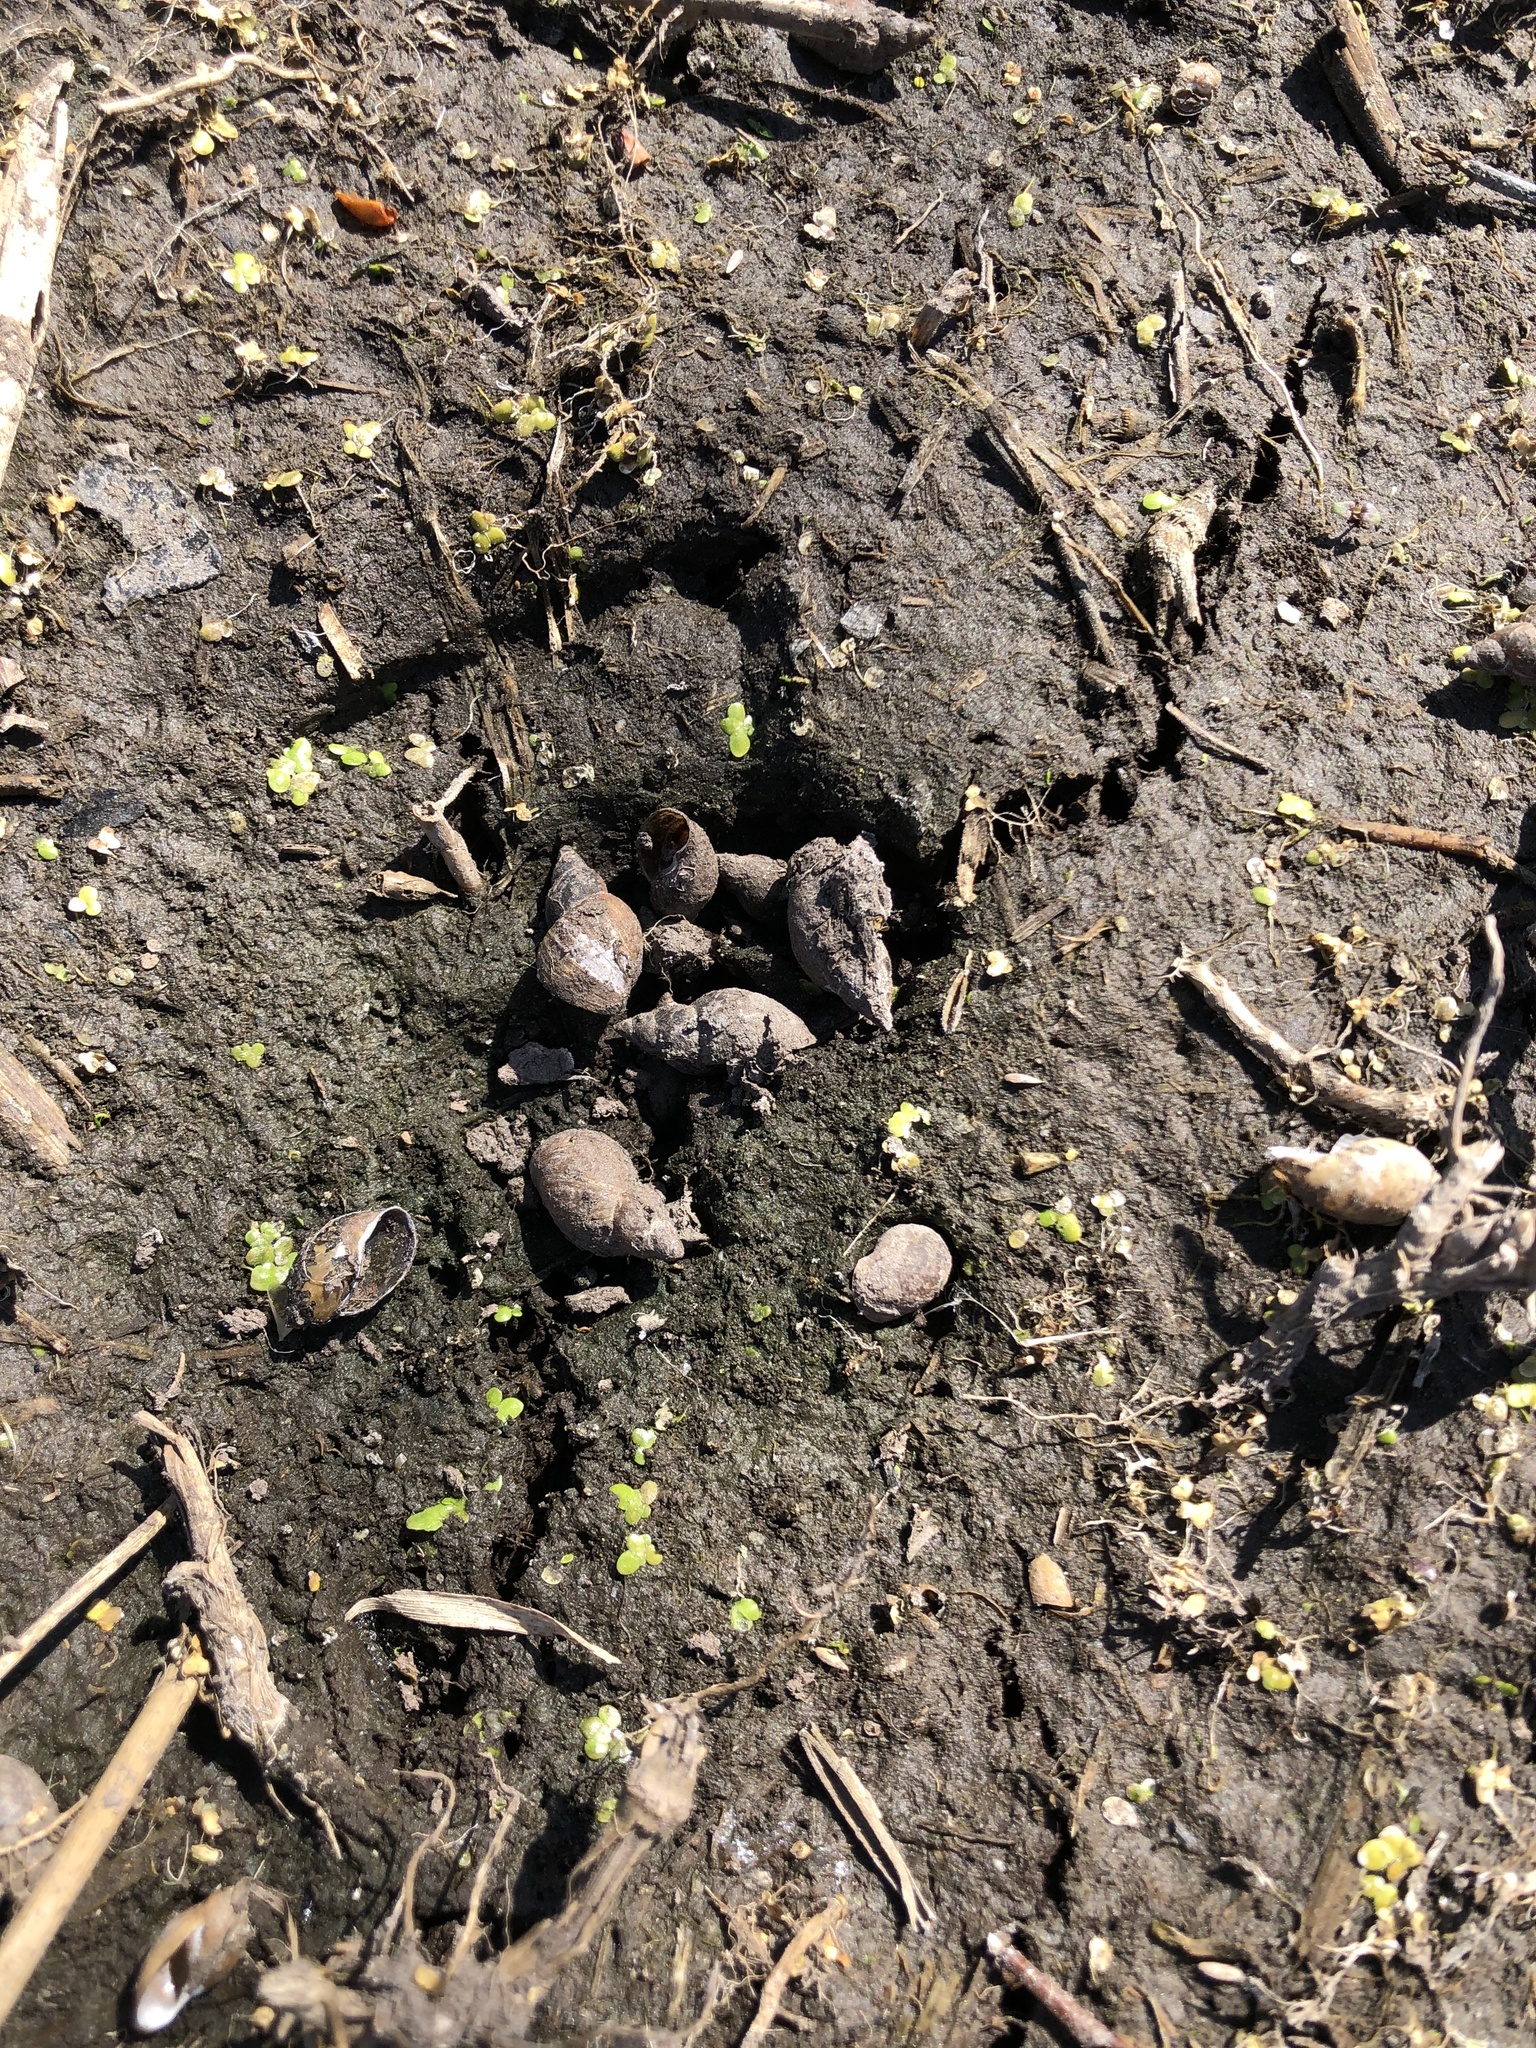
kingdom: Animalia
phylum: Mollusca
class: Gastropoda
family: Lymnaeidae
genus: Ladislavella
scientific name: Ladislavella elodes
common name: Marsh pondsnail
